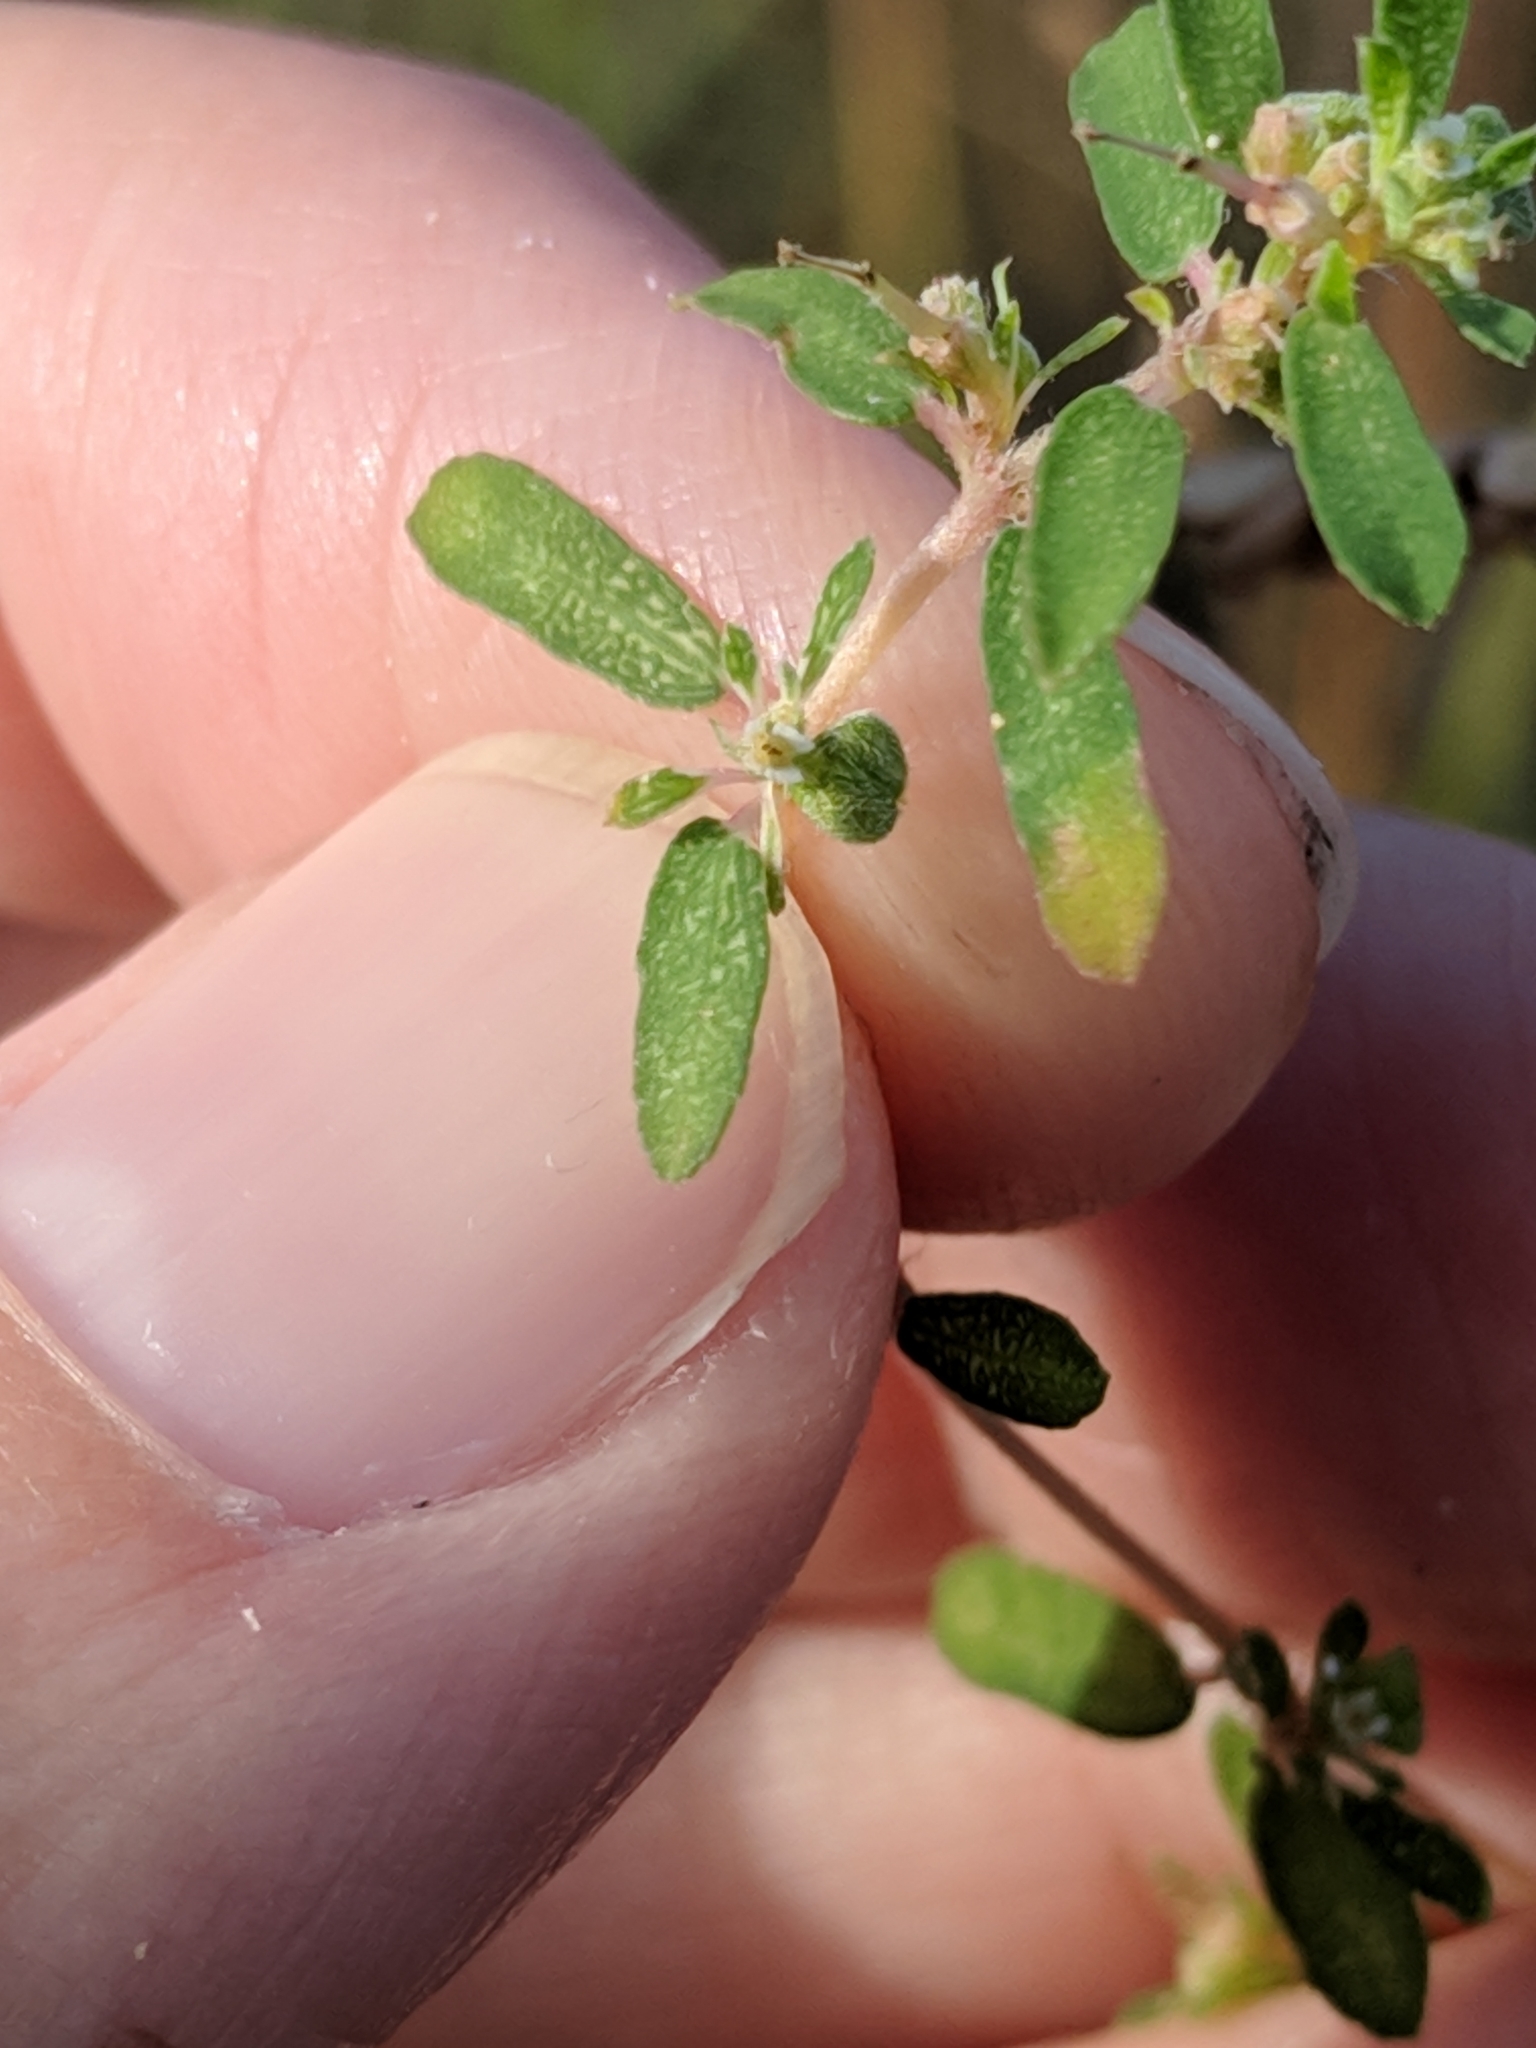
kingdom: Plantae
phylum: Tracheophyta
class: Magnoliopsida
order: Malpighiales
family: Euphorbiaceae
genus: Euphorbia
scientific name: Euphorbia maculata
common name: Spotted spurge
